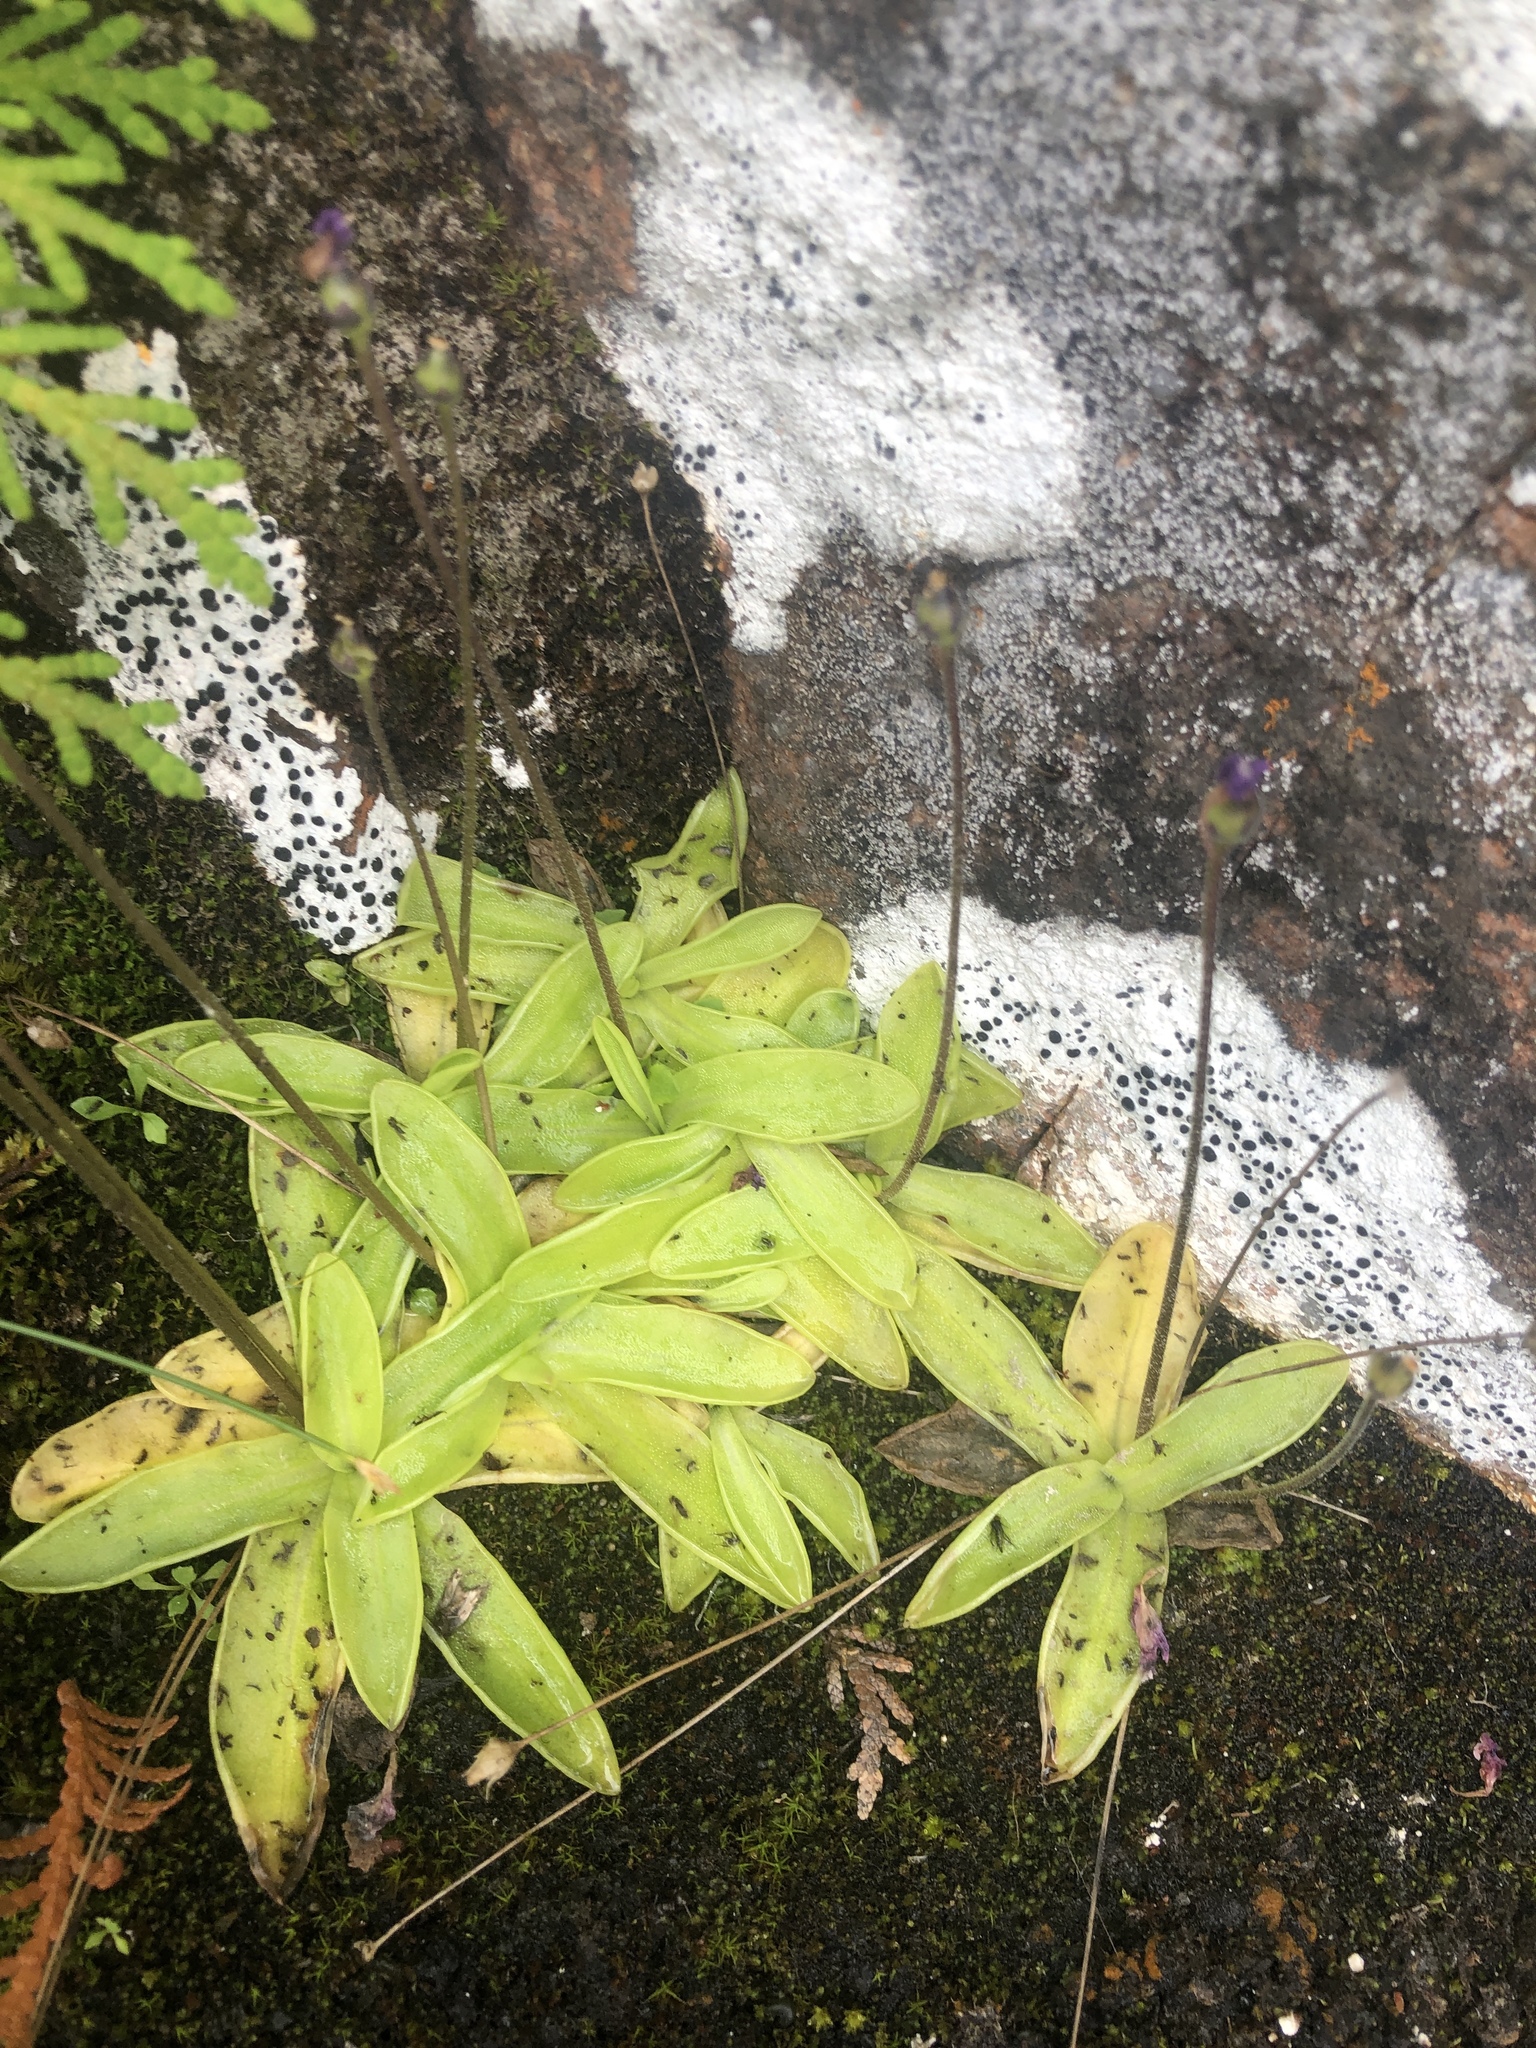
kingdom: Plantae
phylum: Tracheophyta
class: Magnoliopsida
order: Lamiales
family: Lentibulariaceae
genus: Pinguicula
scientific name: Pinguicula vulgaris
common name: Common butterwort
